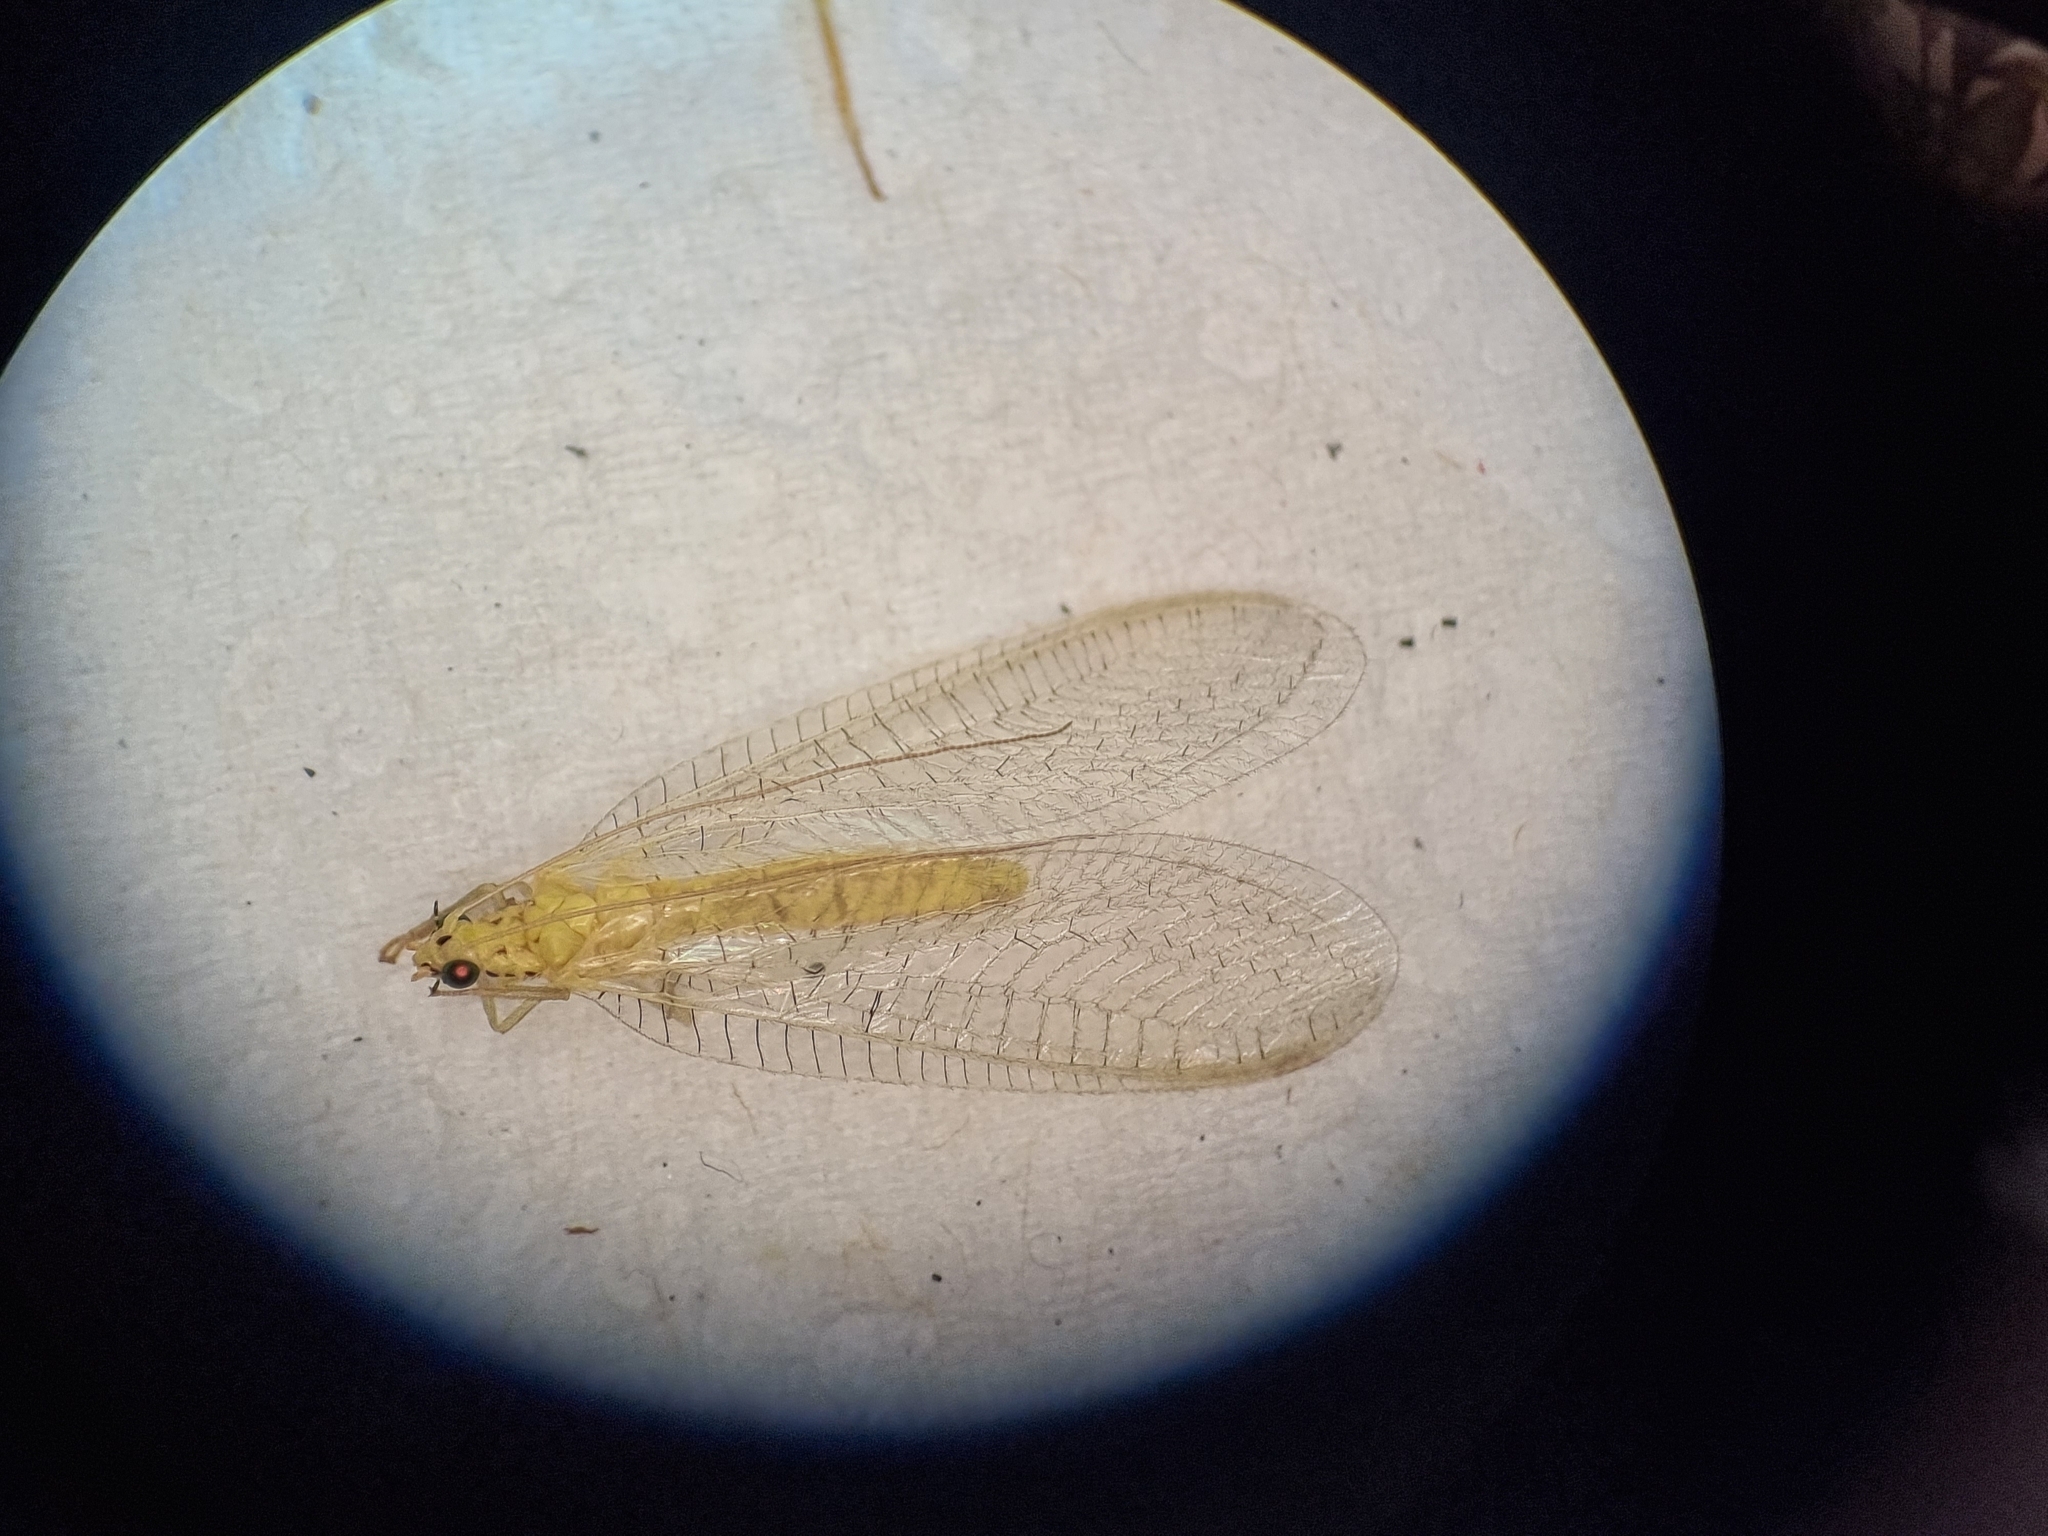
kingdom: Animalia
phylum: Arthropoda
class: Insecta
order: Neuroptera
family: Chrysopidae
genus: Pseudomallada
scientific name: Pseudomallada prasinus
